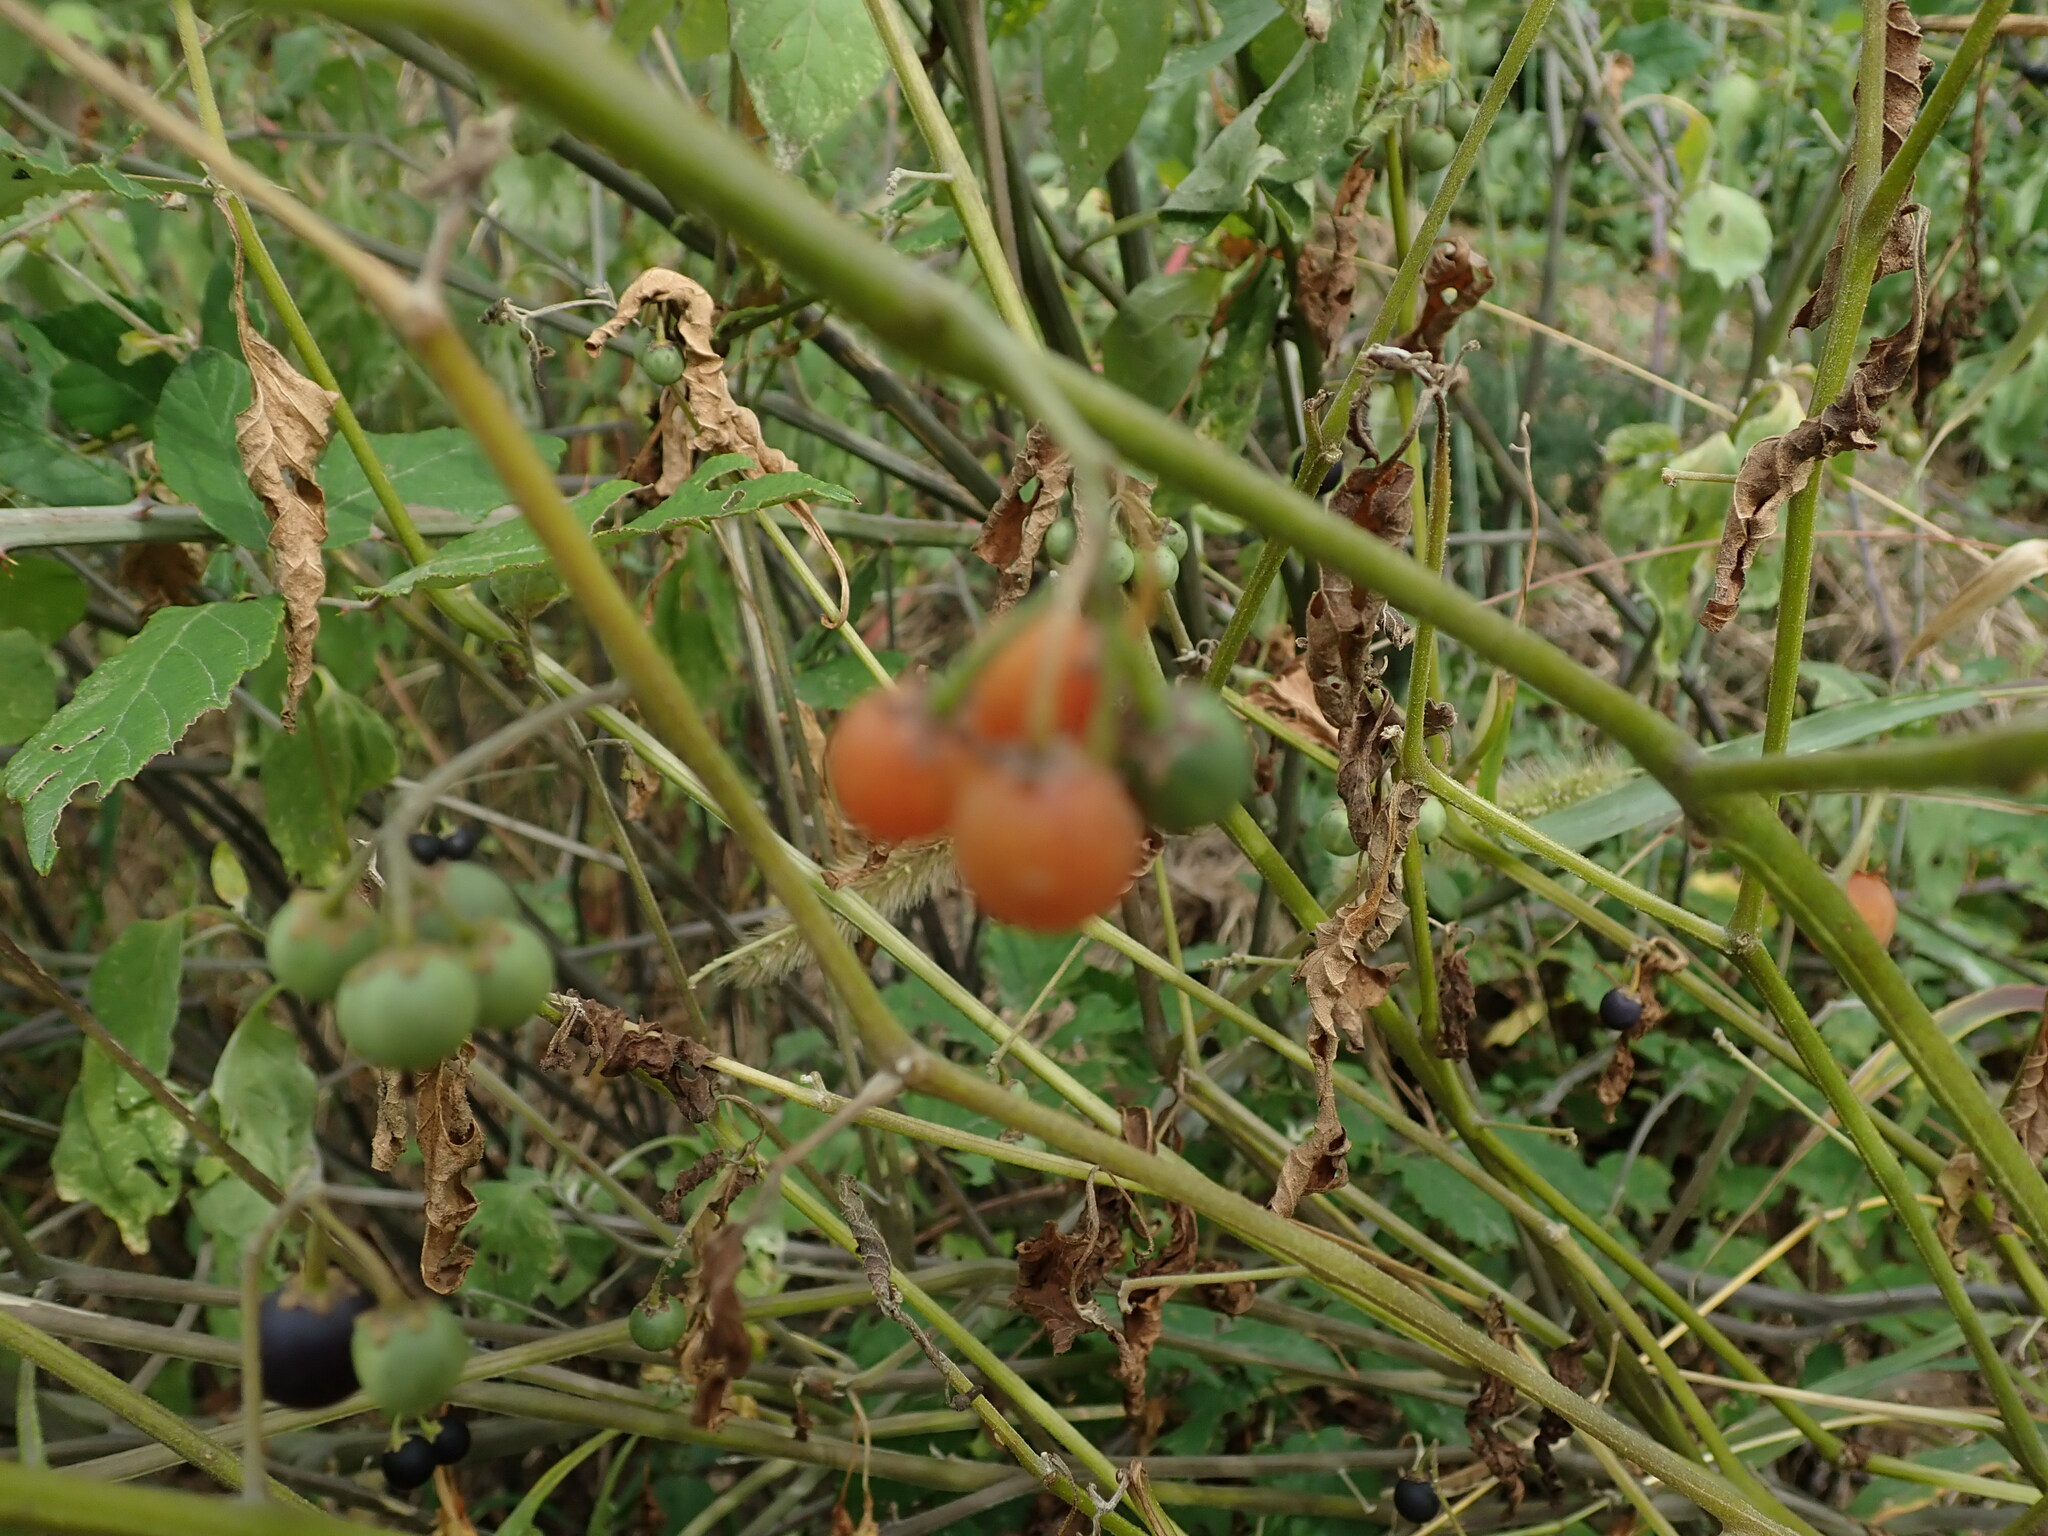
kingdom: Plantae
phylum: Tracheophyta
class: Magnoliopsida
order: Solanales
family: Solanaceae
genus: Solanum
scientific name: Solanum villosum
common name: Red nightshade
